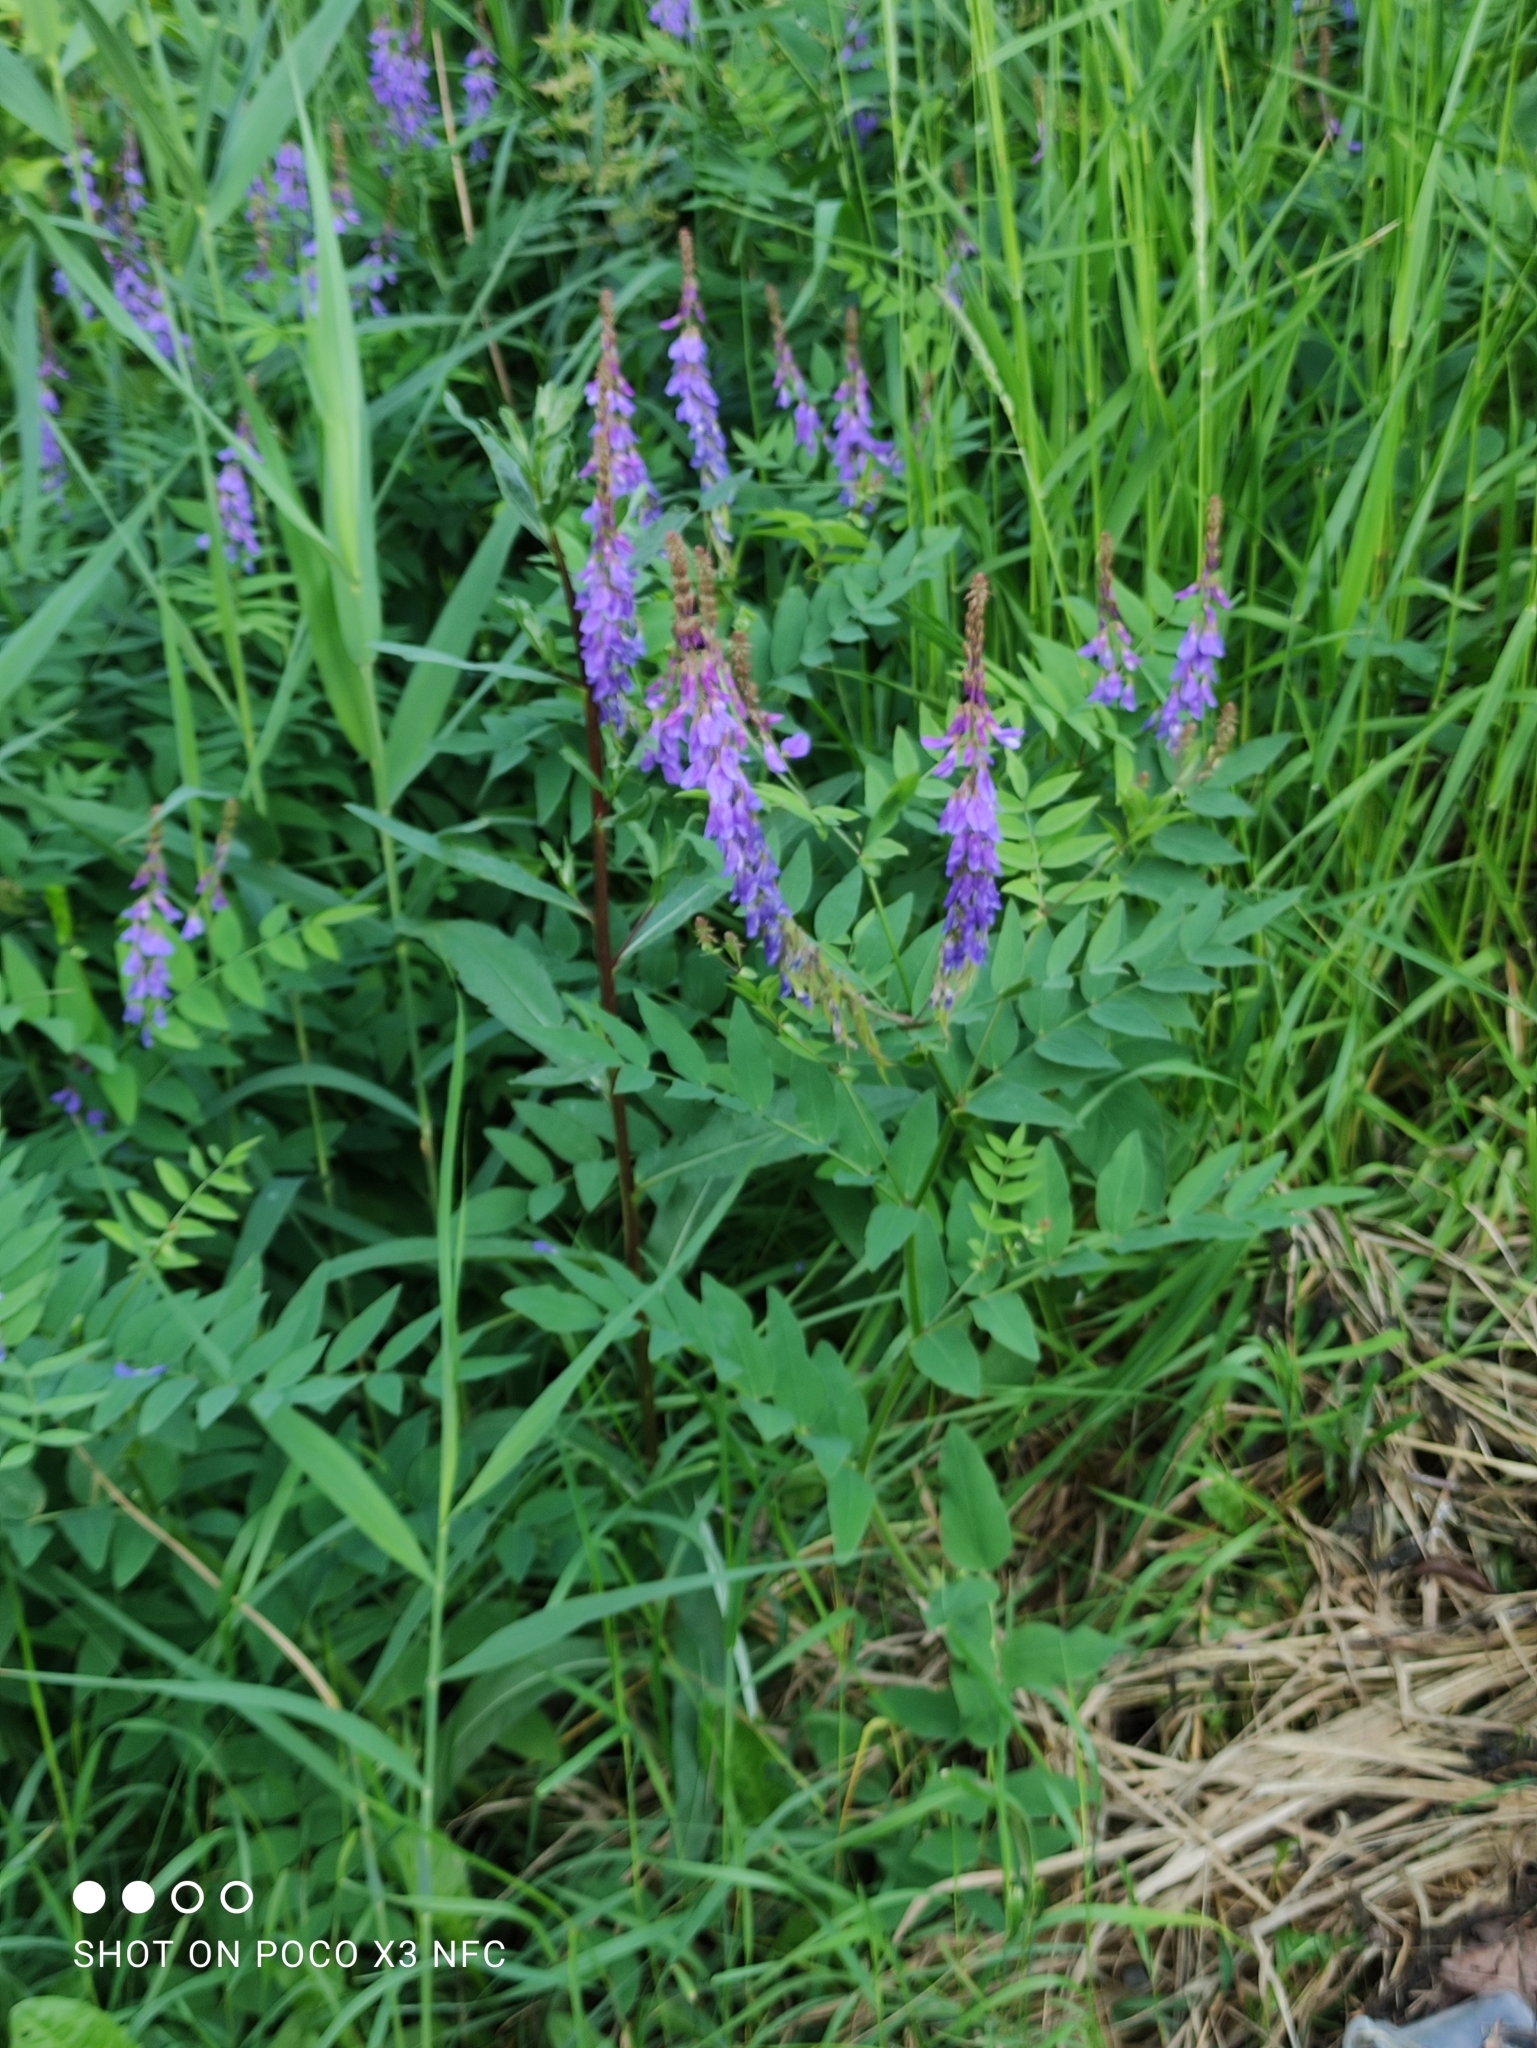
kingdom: Plantae
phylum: Tracheophyta
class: Magnoliopsida
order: Fabales
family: Fabaceae
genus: Galega
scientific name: Galega orientalis
